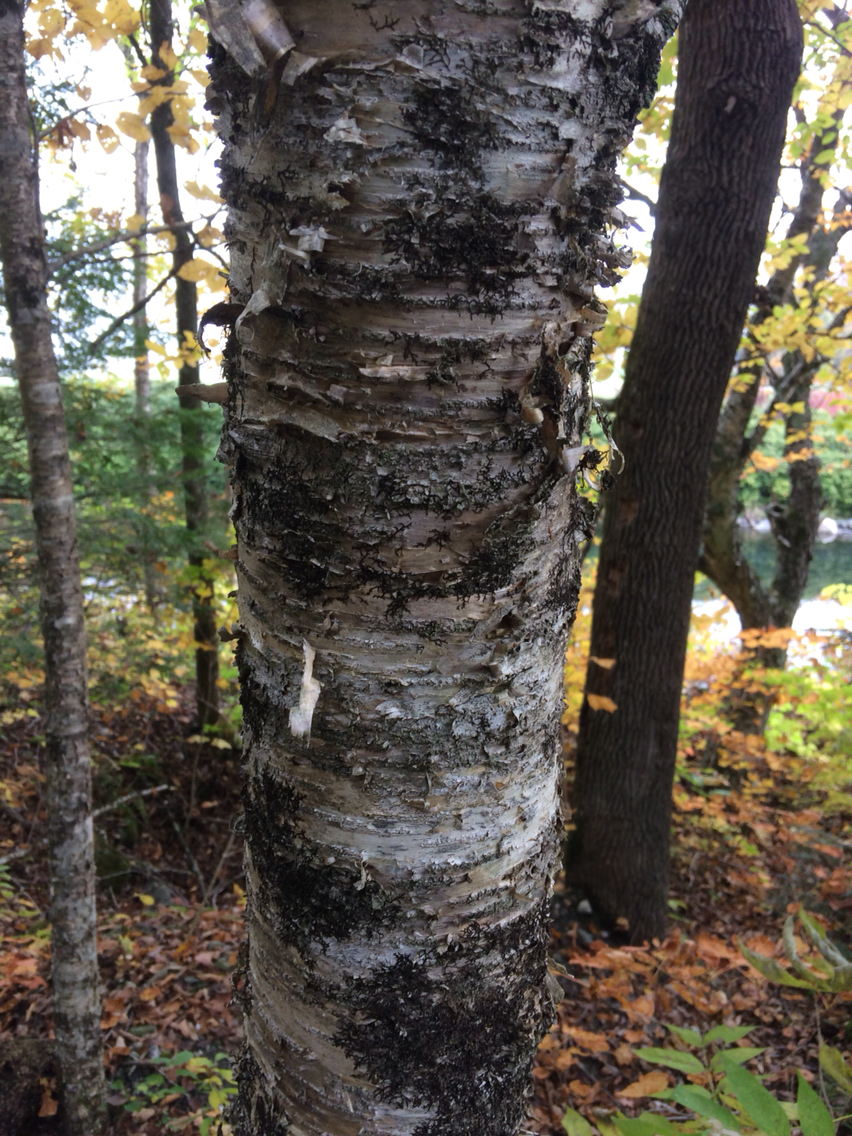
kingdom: Plantae
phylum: Tracheophyta
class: Magnoliopsida
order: Fagales
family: Betulaceae
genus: Betula
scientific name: Betula alleghaniensis
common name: Yellow birch
